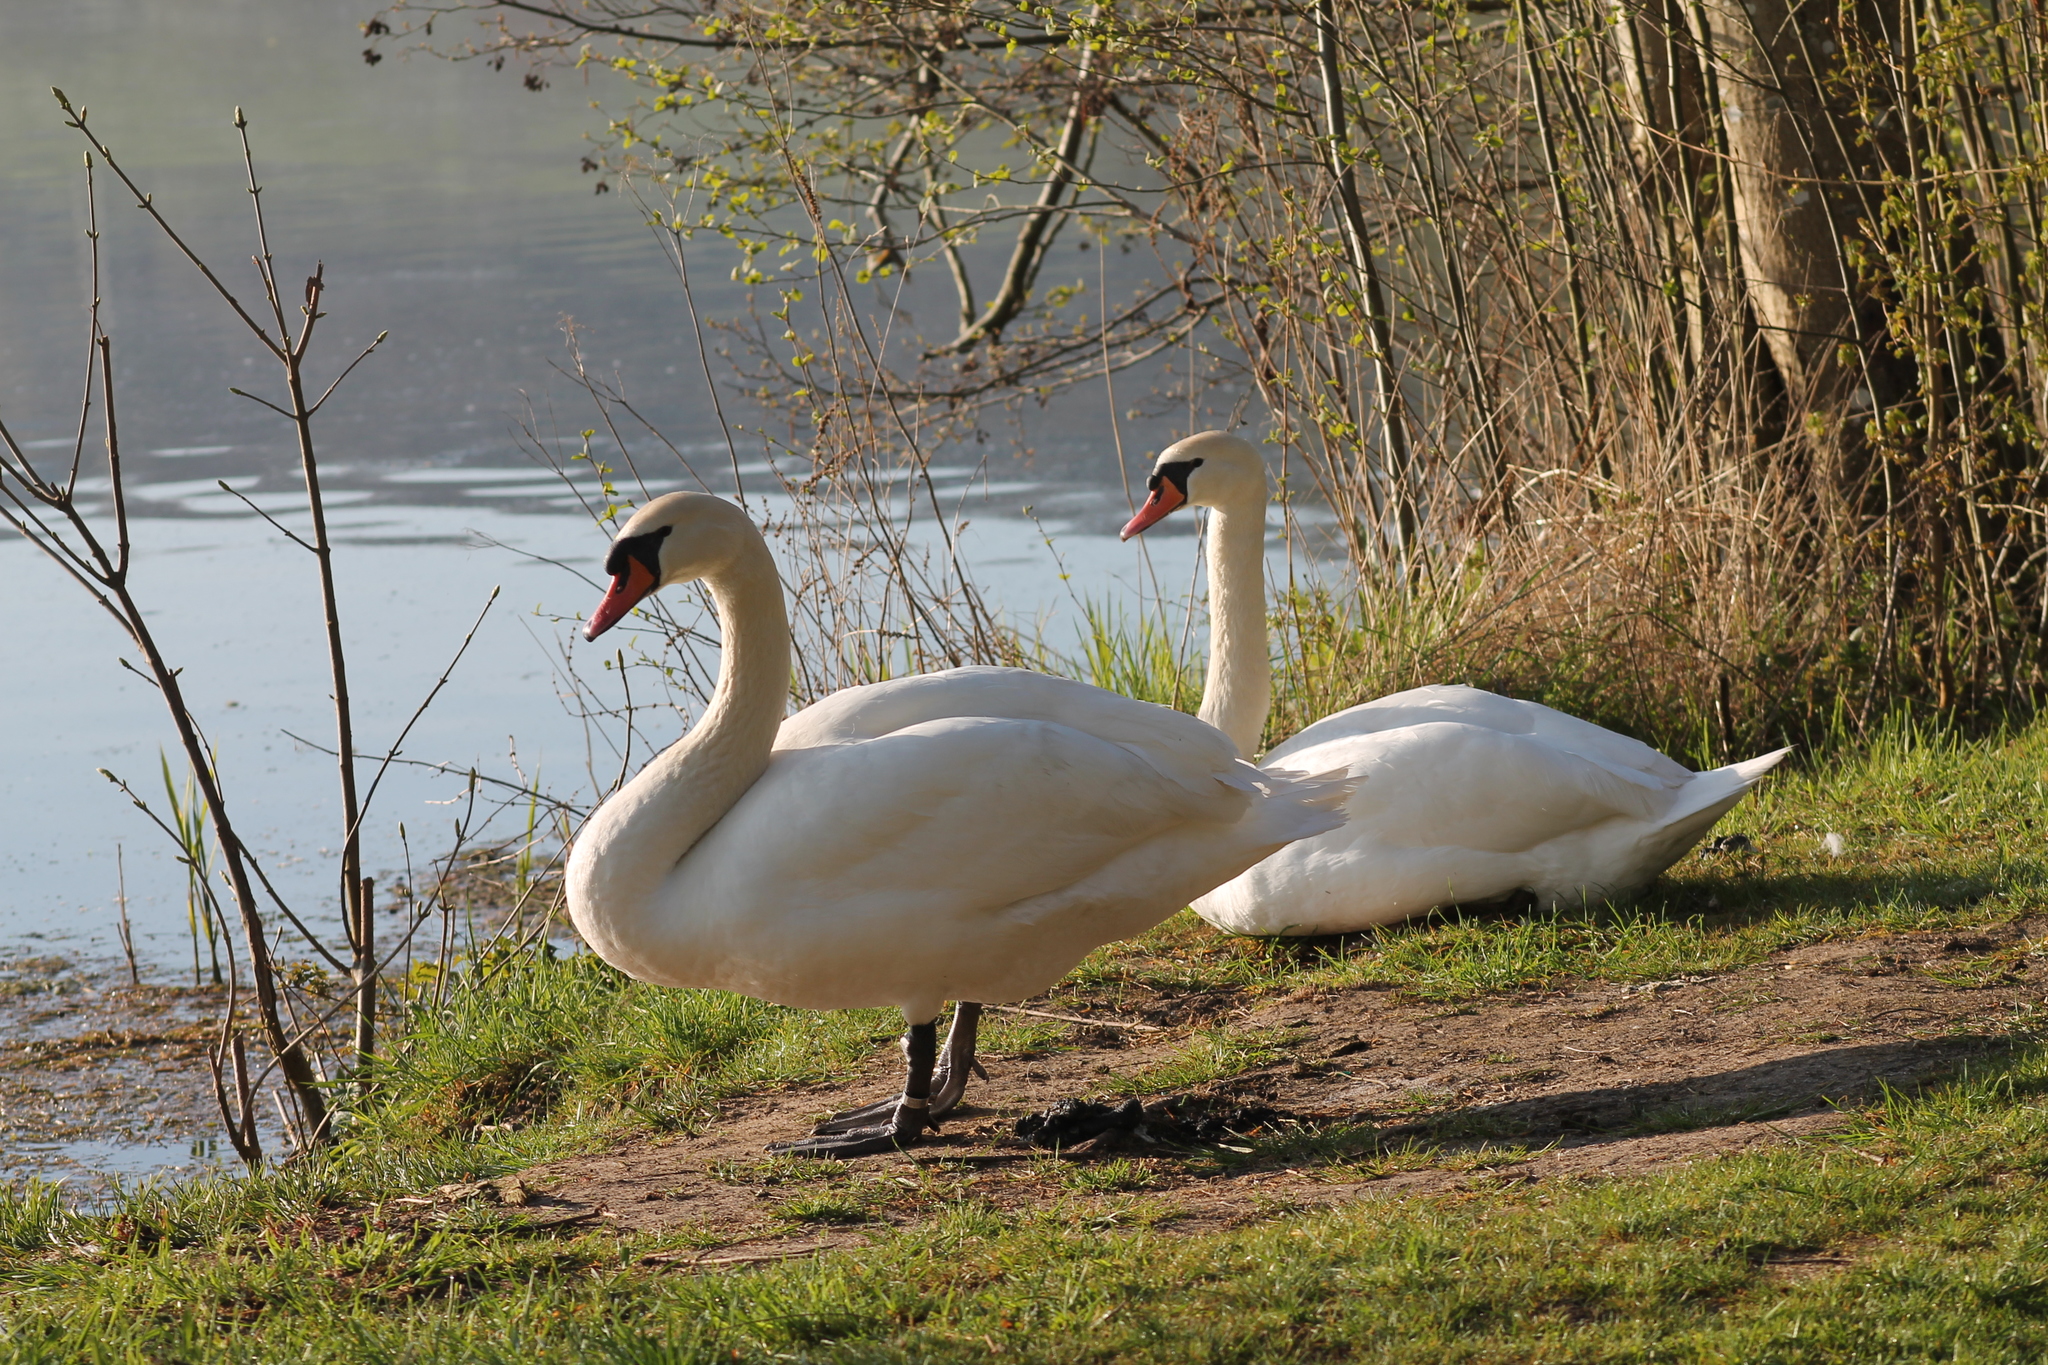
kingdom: Animalia
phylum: Chordata
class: Aves
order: Anseriformes
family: Anatidae
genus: Cygnus
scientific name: Cygnus olor
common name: Mute swan
